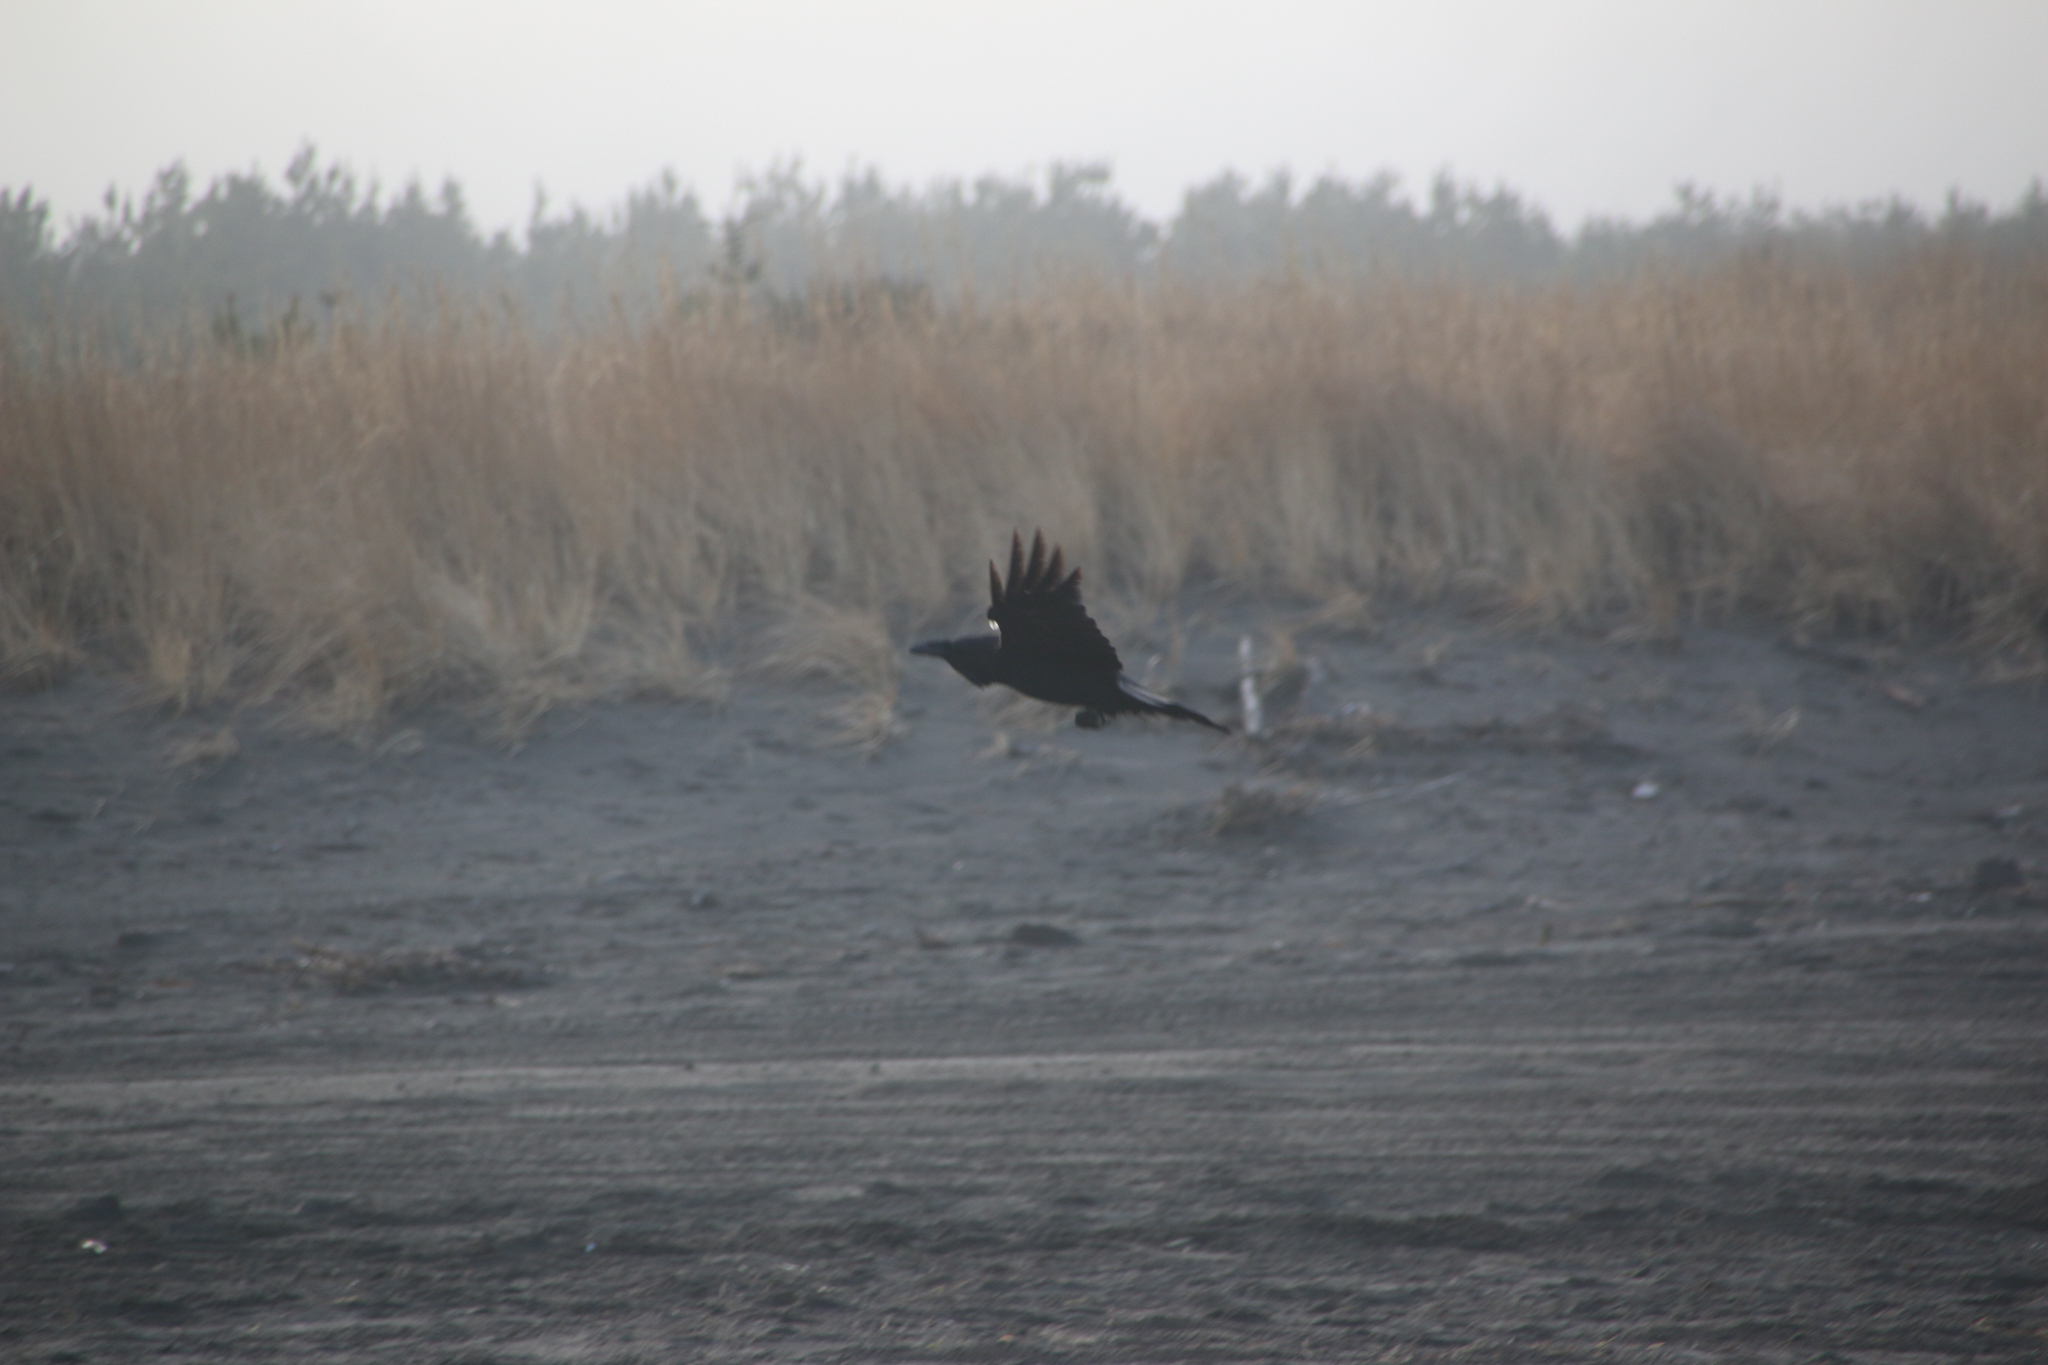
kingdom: Animalia
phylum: Chordata
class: Aves
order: Passeriformes
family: Corvidae
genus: Corvus
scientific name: Corvus brachyrhynchos
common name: American crow
